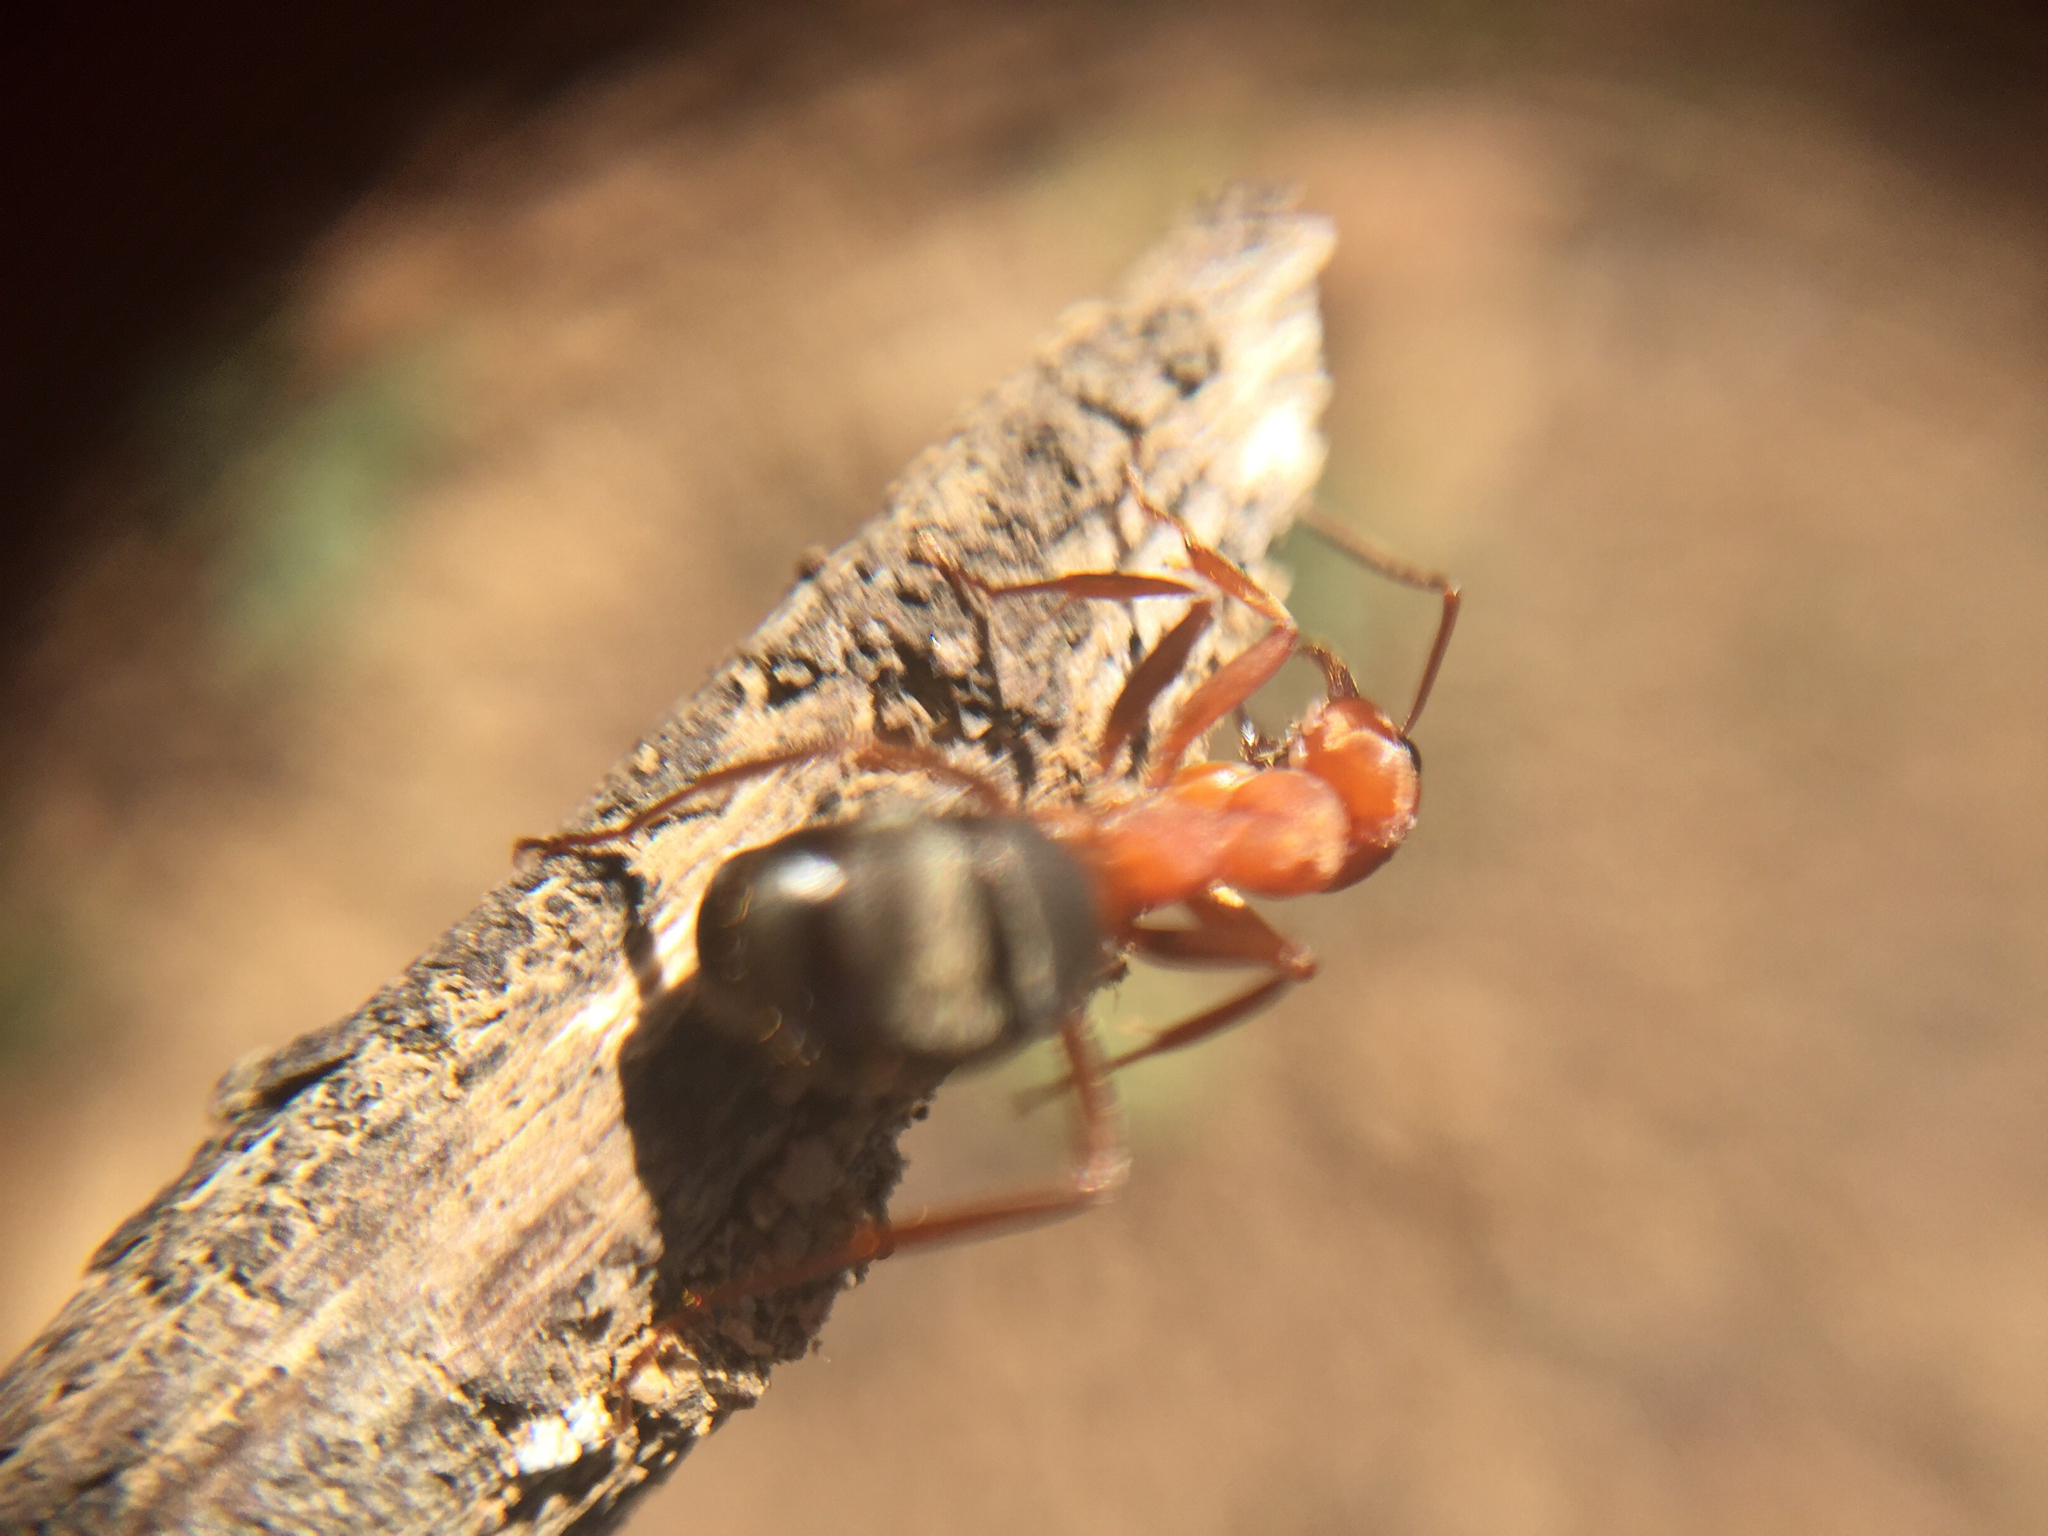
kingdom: Animalia
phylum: Arthropoda
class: Insecta
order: Hymenoptera
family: Formicidae
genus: Formica
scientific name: Formica integroides
